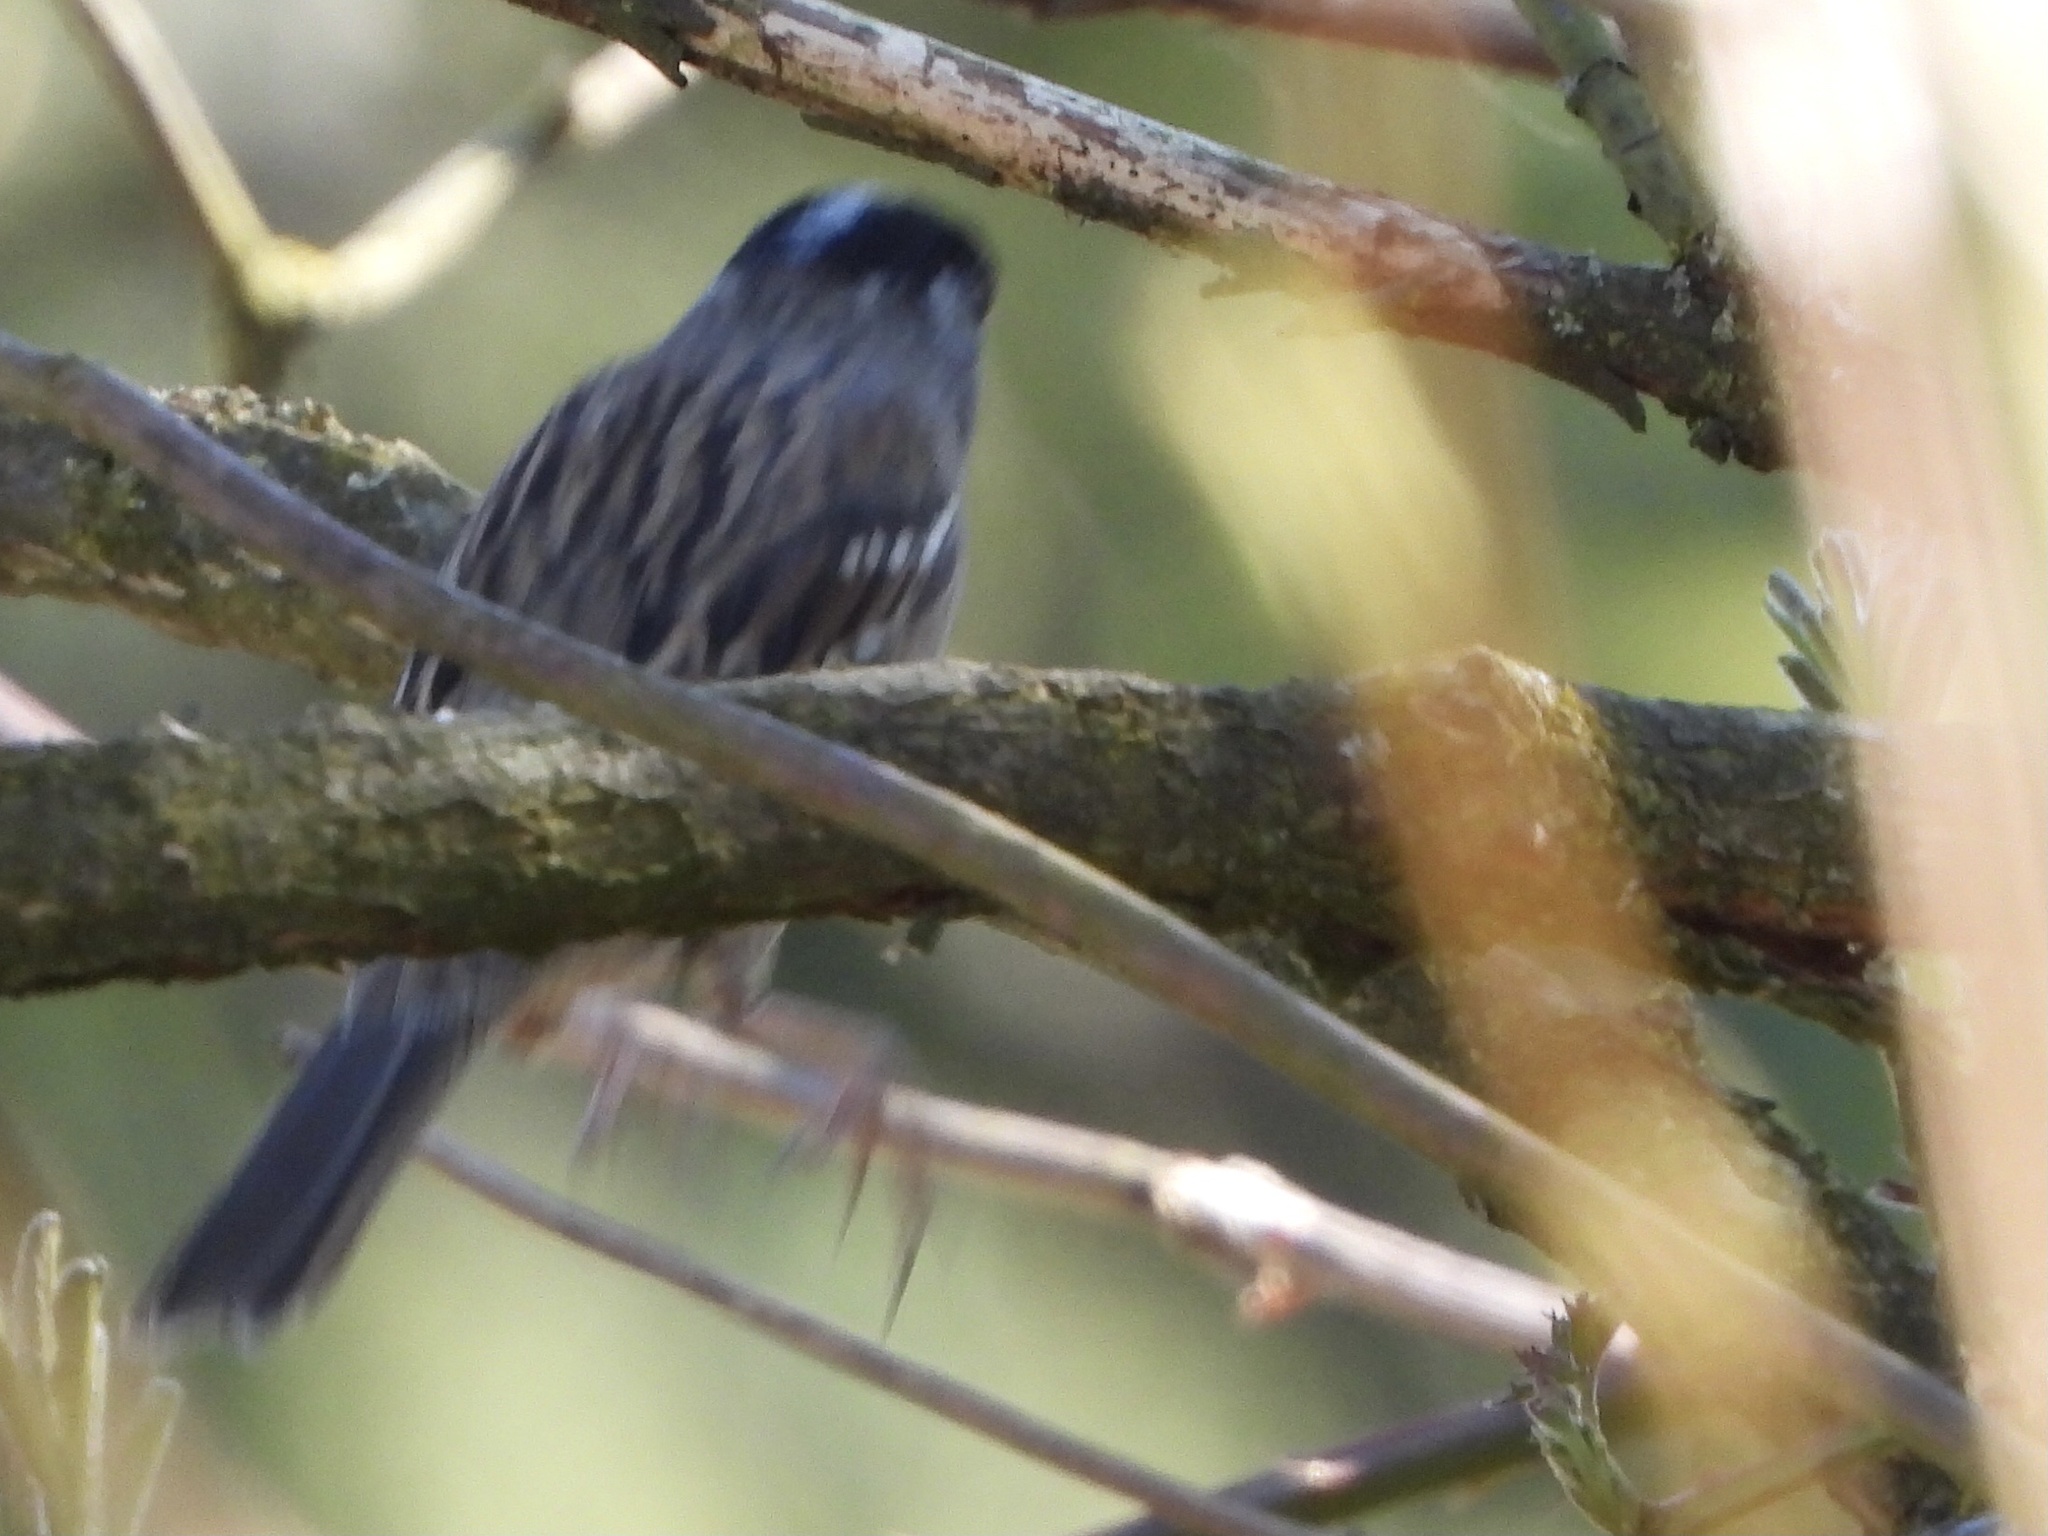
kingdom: Animalia
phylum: Chordata
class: Aves
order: Passeriformes
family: Passerellidae
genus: Zonotrichia
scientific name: Zonotrichia atricapilla
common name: Golden-crowned sparrow
